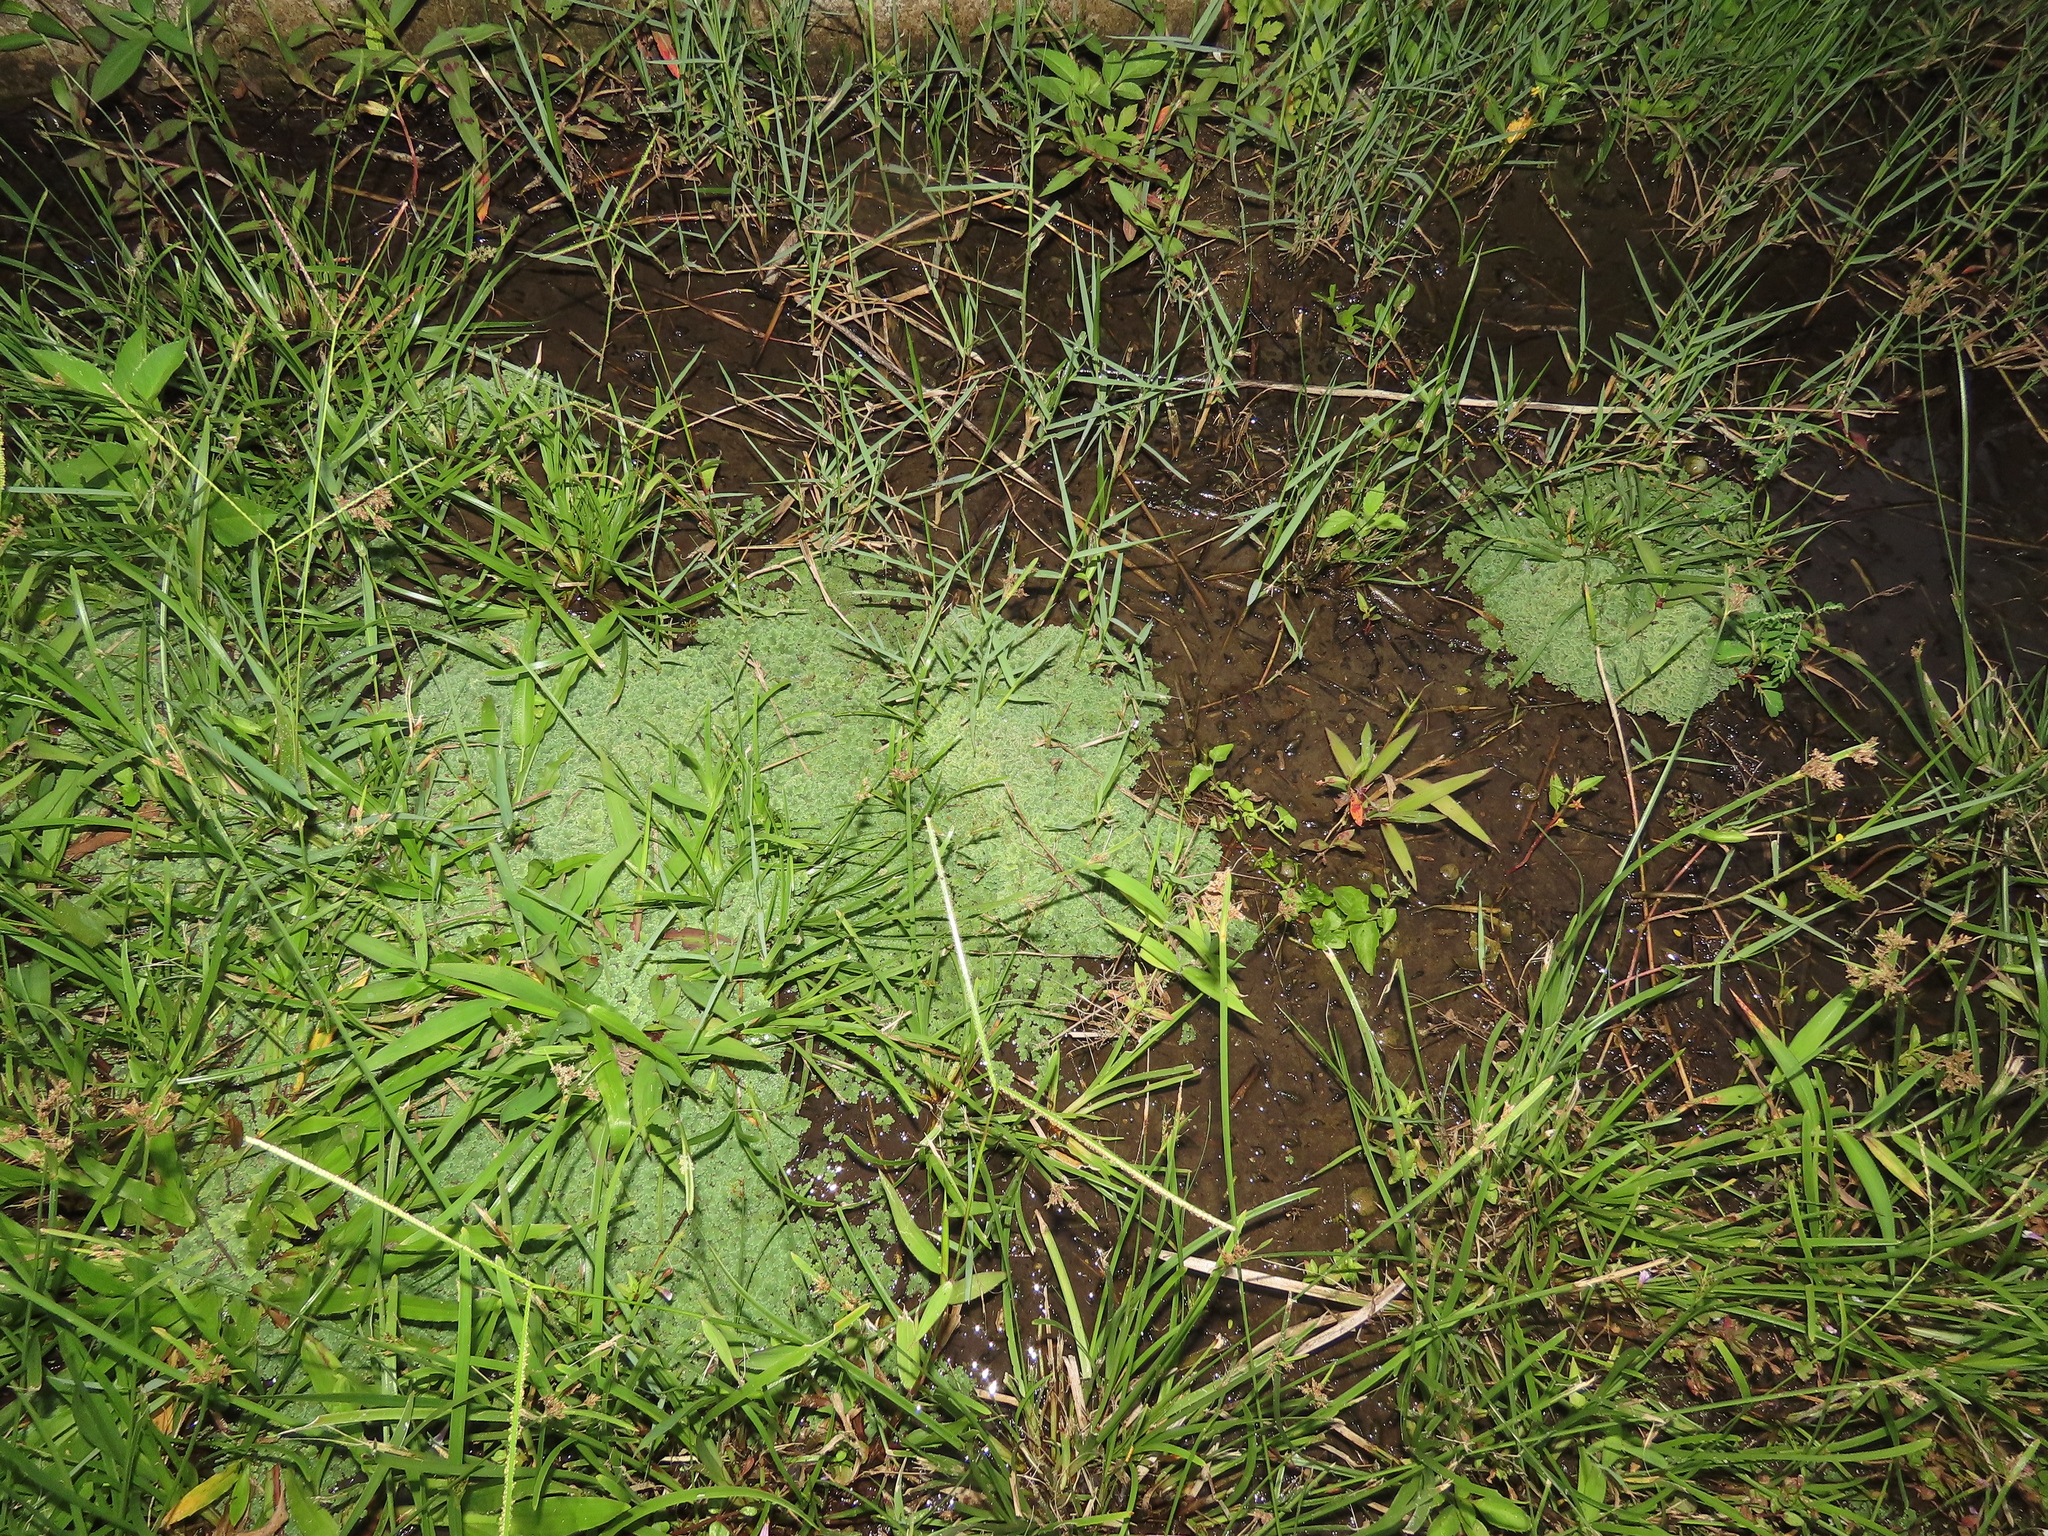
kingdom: Plantae
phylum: Tracheophyta
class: Polypodiopsida
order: Salviniales
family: Salviniaceae
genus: Azolla
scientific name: Azolla caroliniana
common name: Carolina mosquitofern
